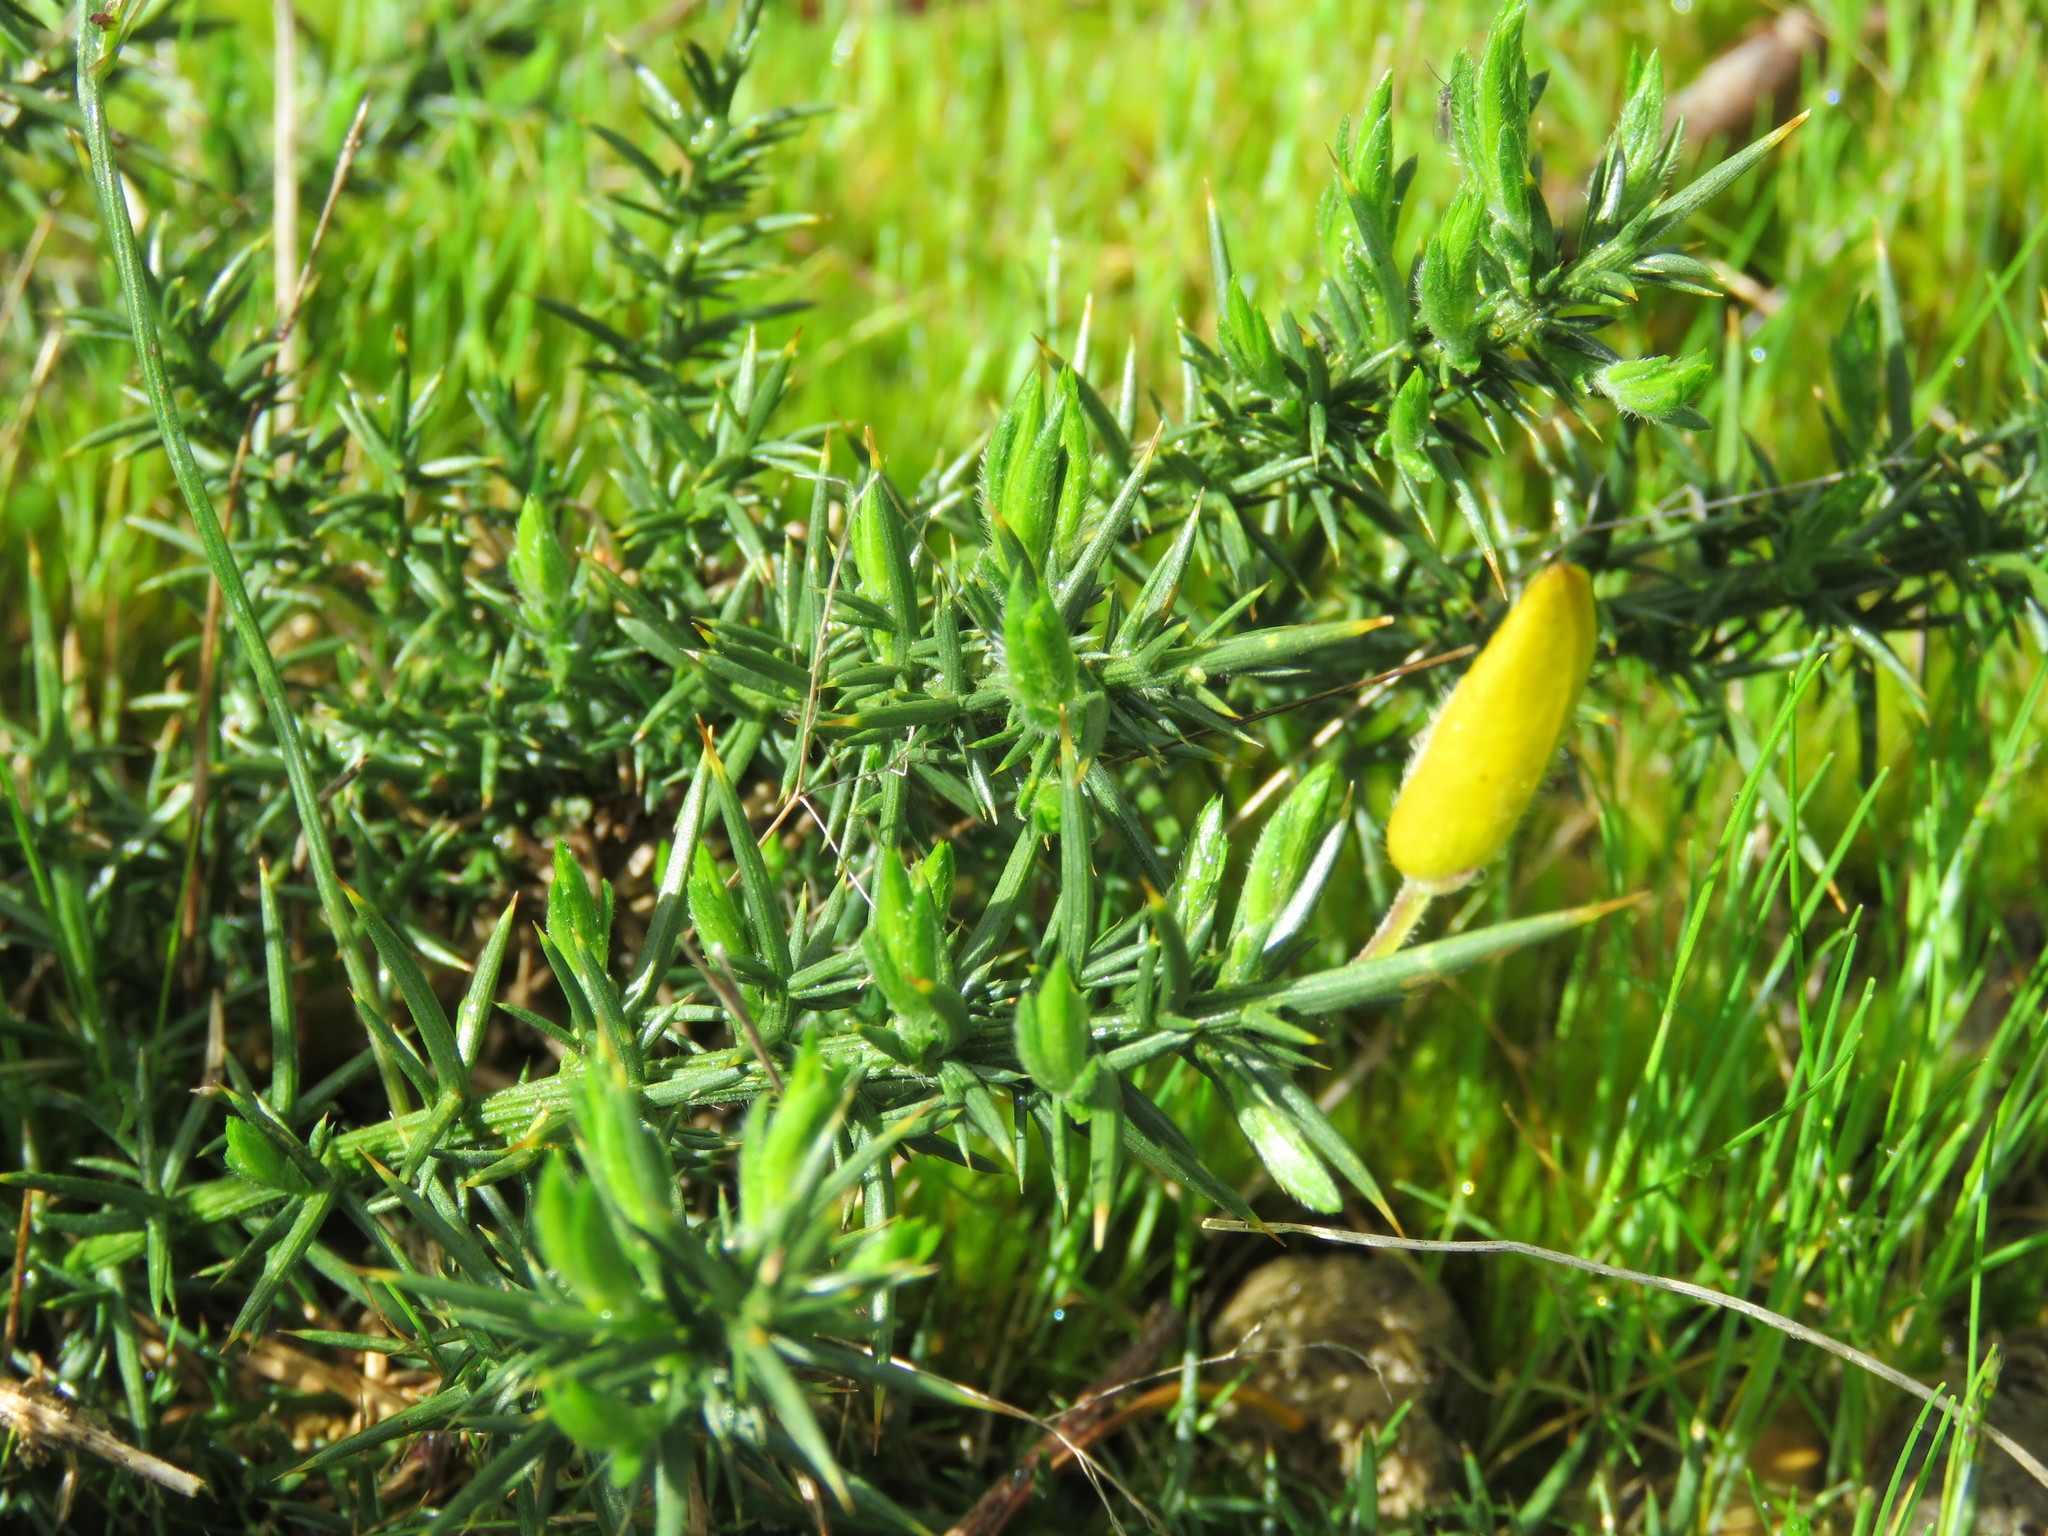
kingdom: Plantae
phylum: Tracheophyta
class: Magnoliopsida
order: Fabales
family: Fabaceae
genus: Ulex
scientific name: Ulex europaeus
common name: Common gorse
